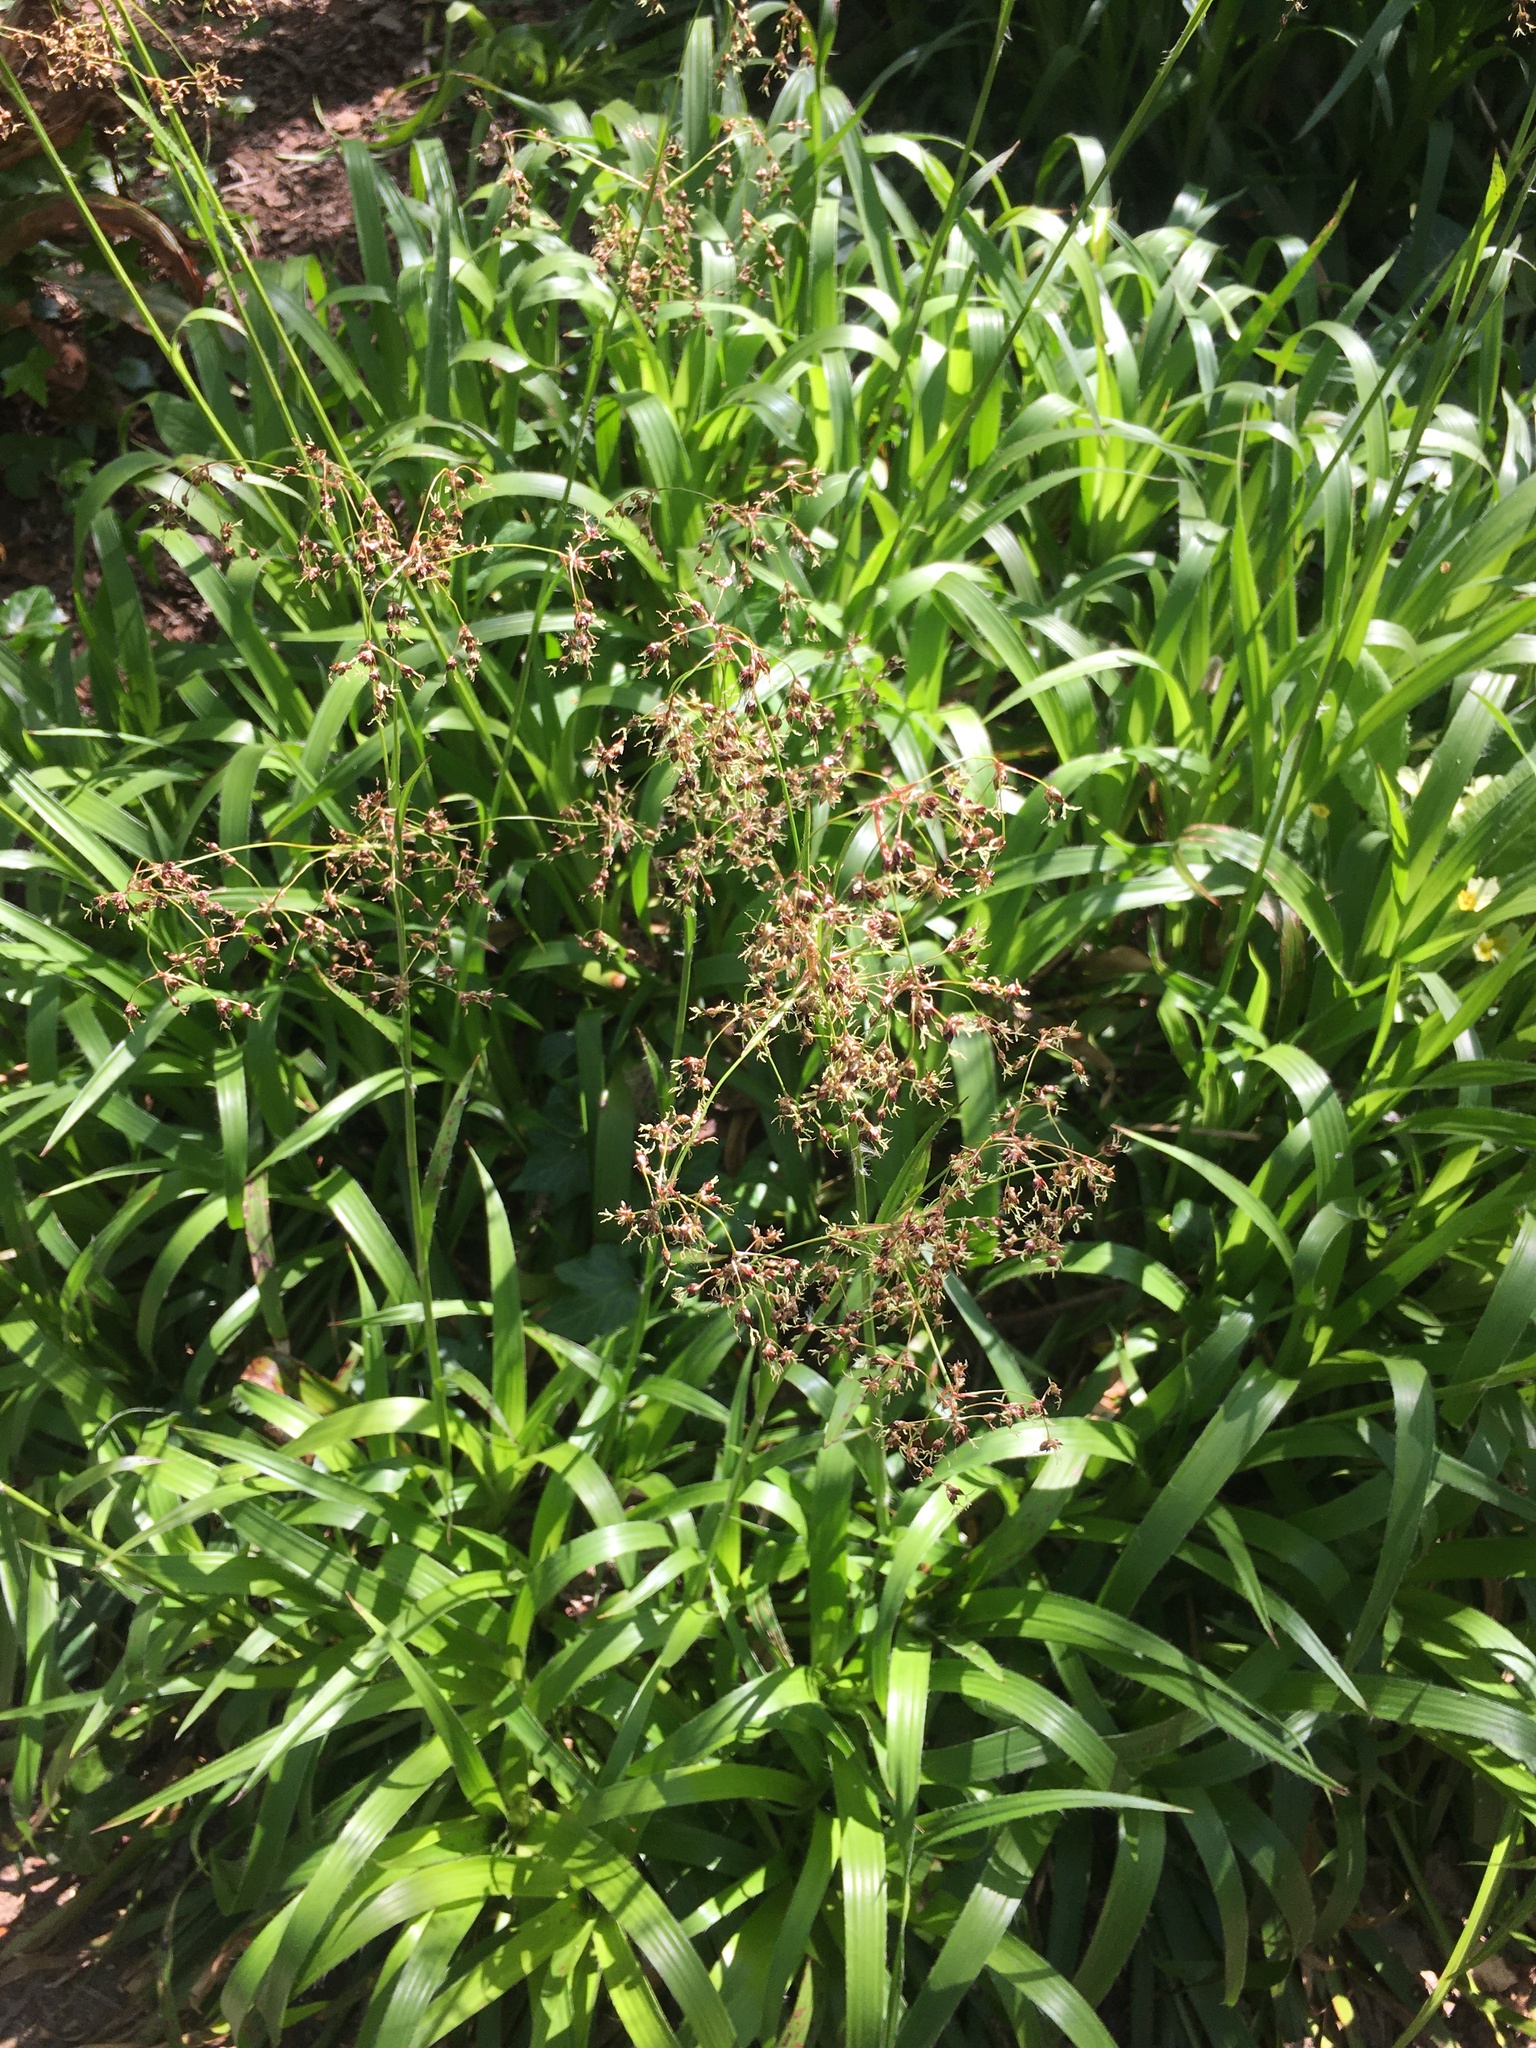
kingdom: Plantae
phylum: Tracheophyta
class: Liliopsida
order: Poales
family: Juncaceae
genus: Luzula
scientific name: Luzula sylvatica
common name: Great wood-rush
